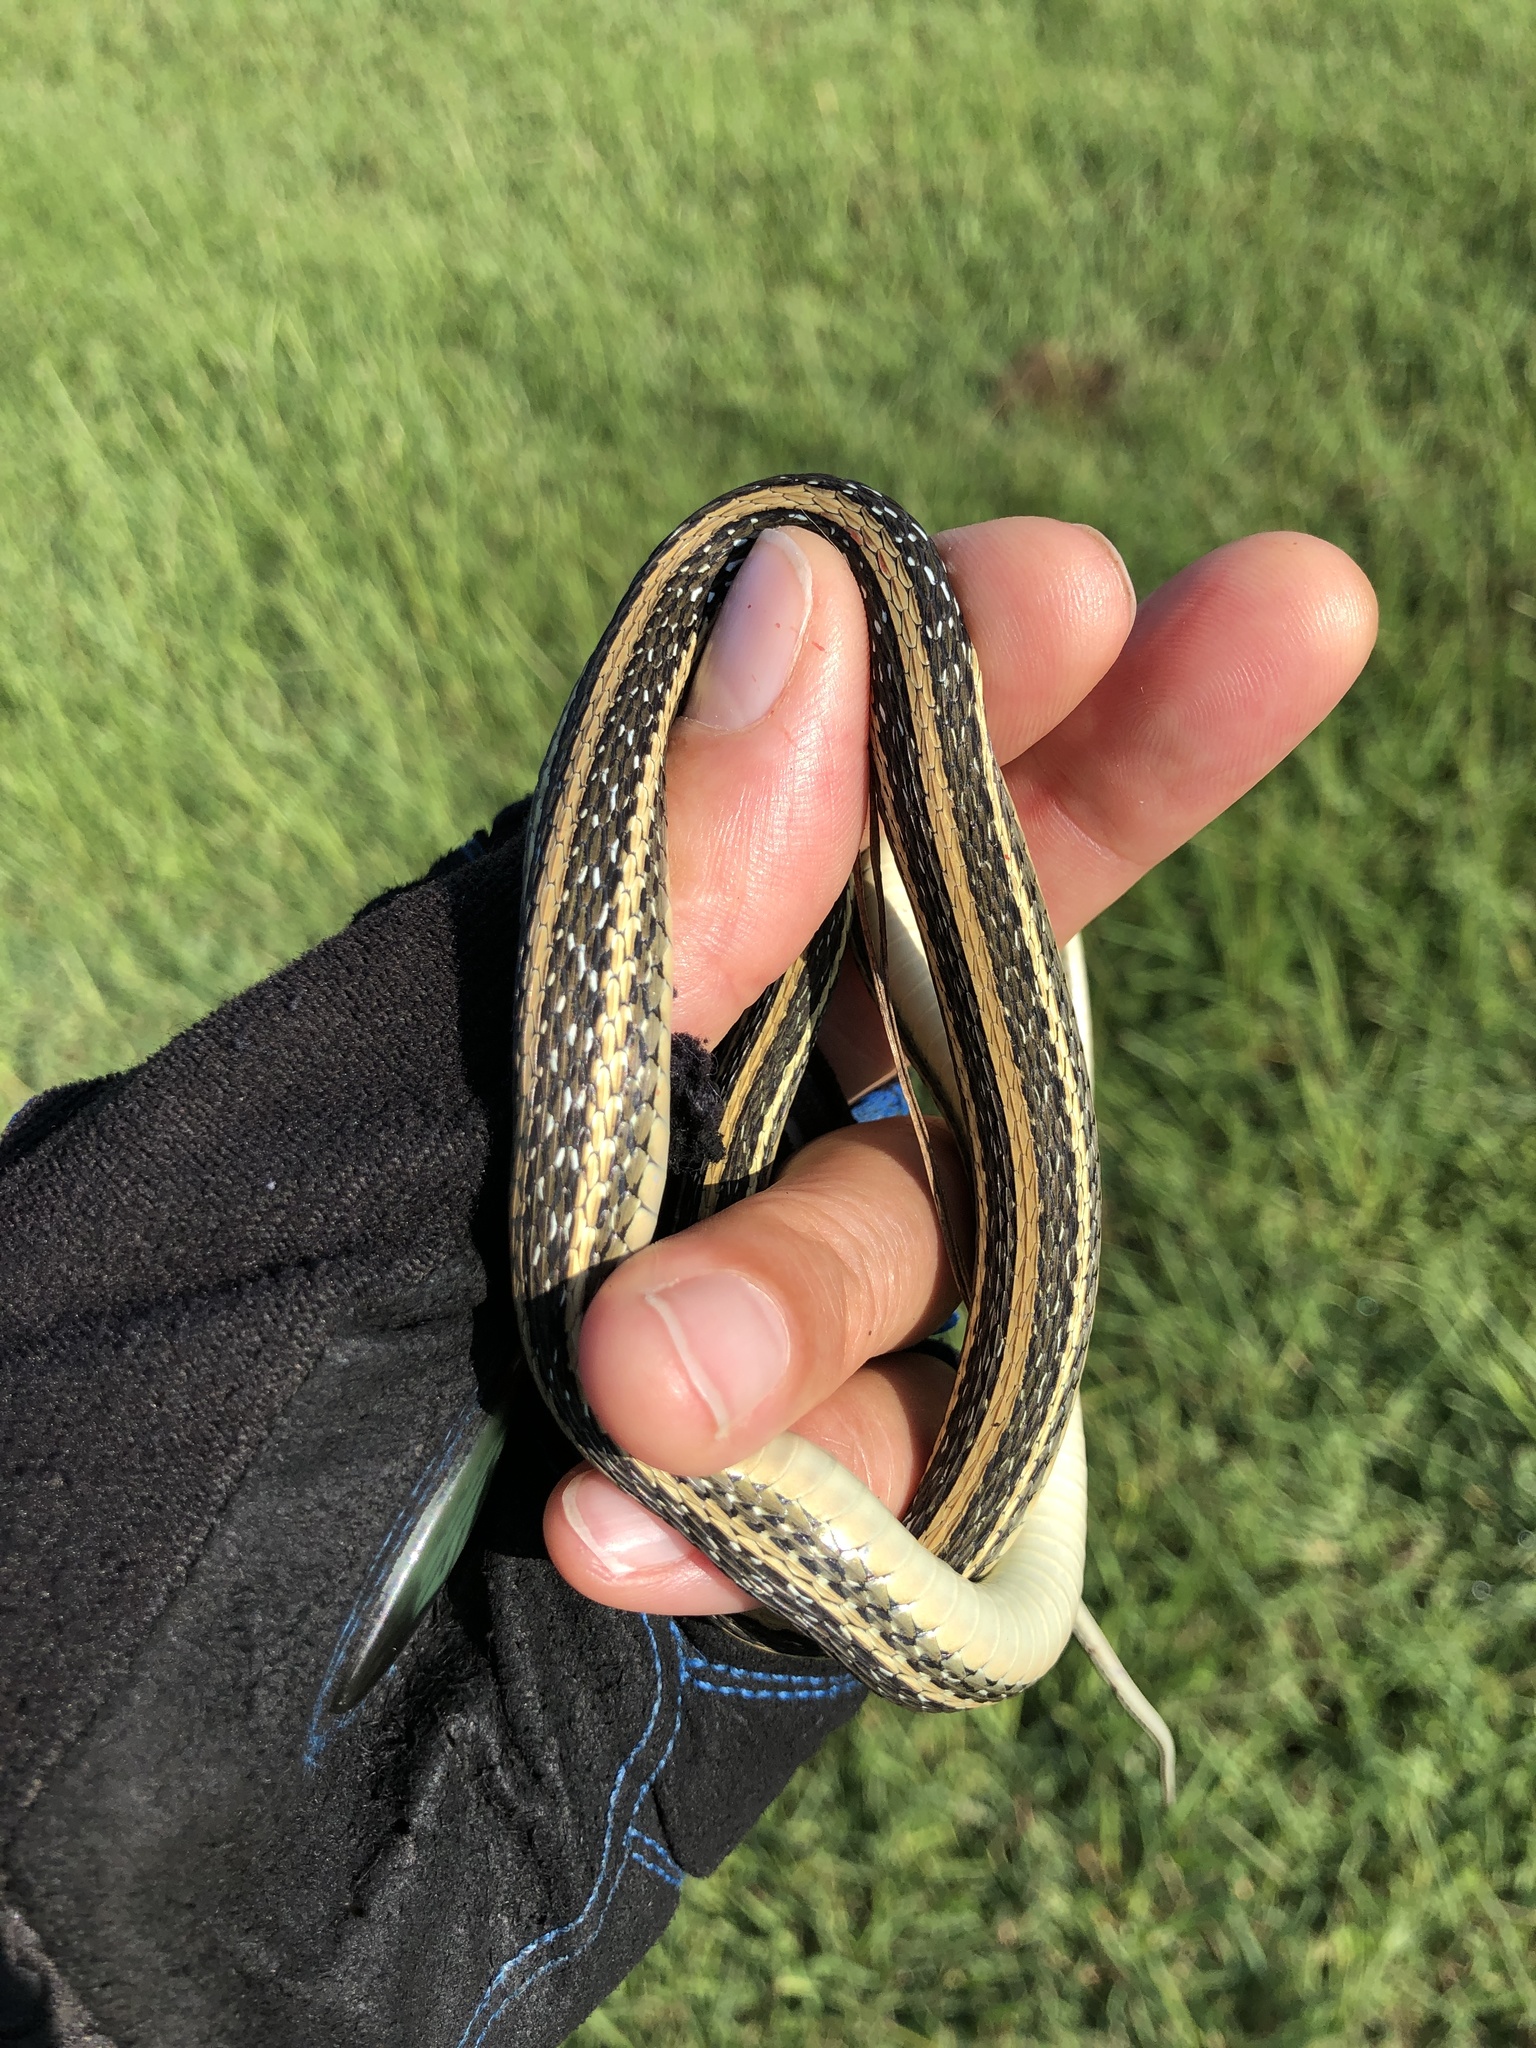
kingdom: Animalia
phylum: Chordata
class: Squamata
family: Colubridae
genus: Thamnophis
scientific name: Thamnophis proximus
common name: Western ribbon snake
